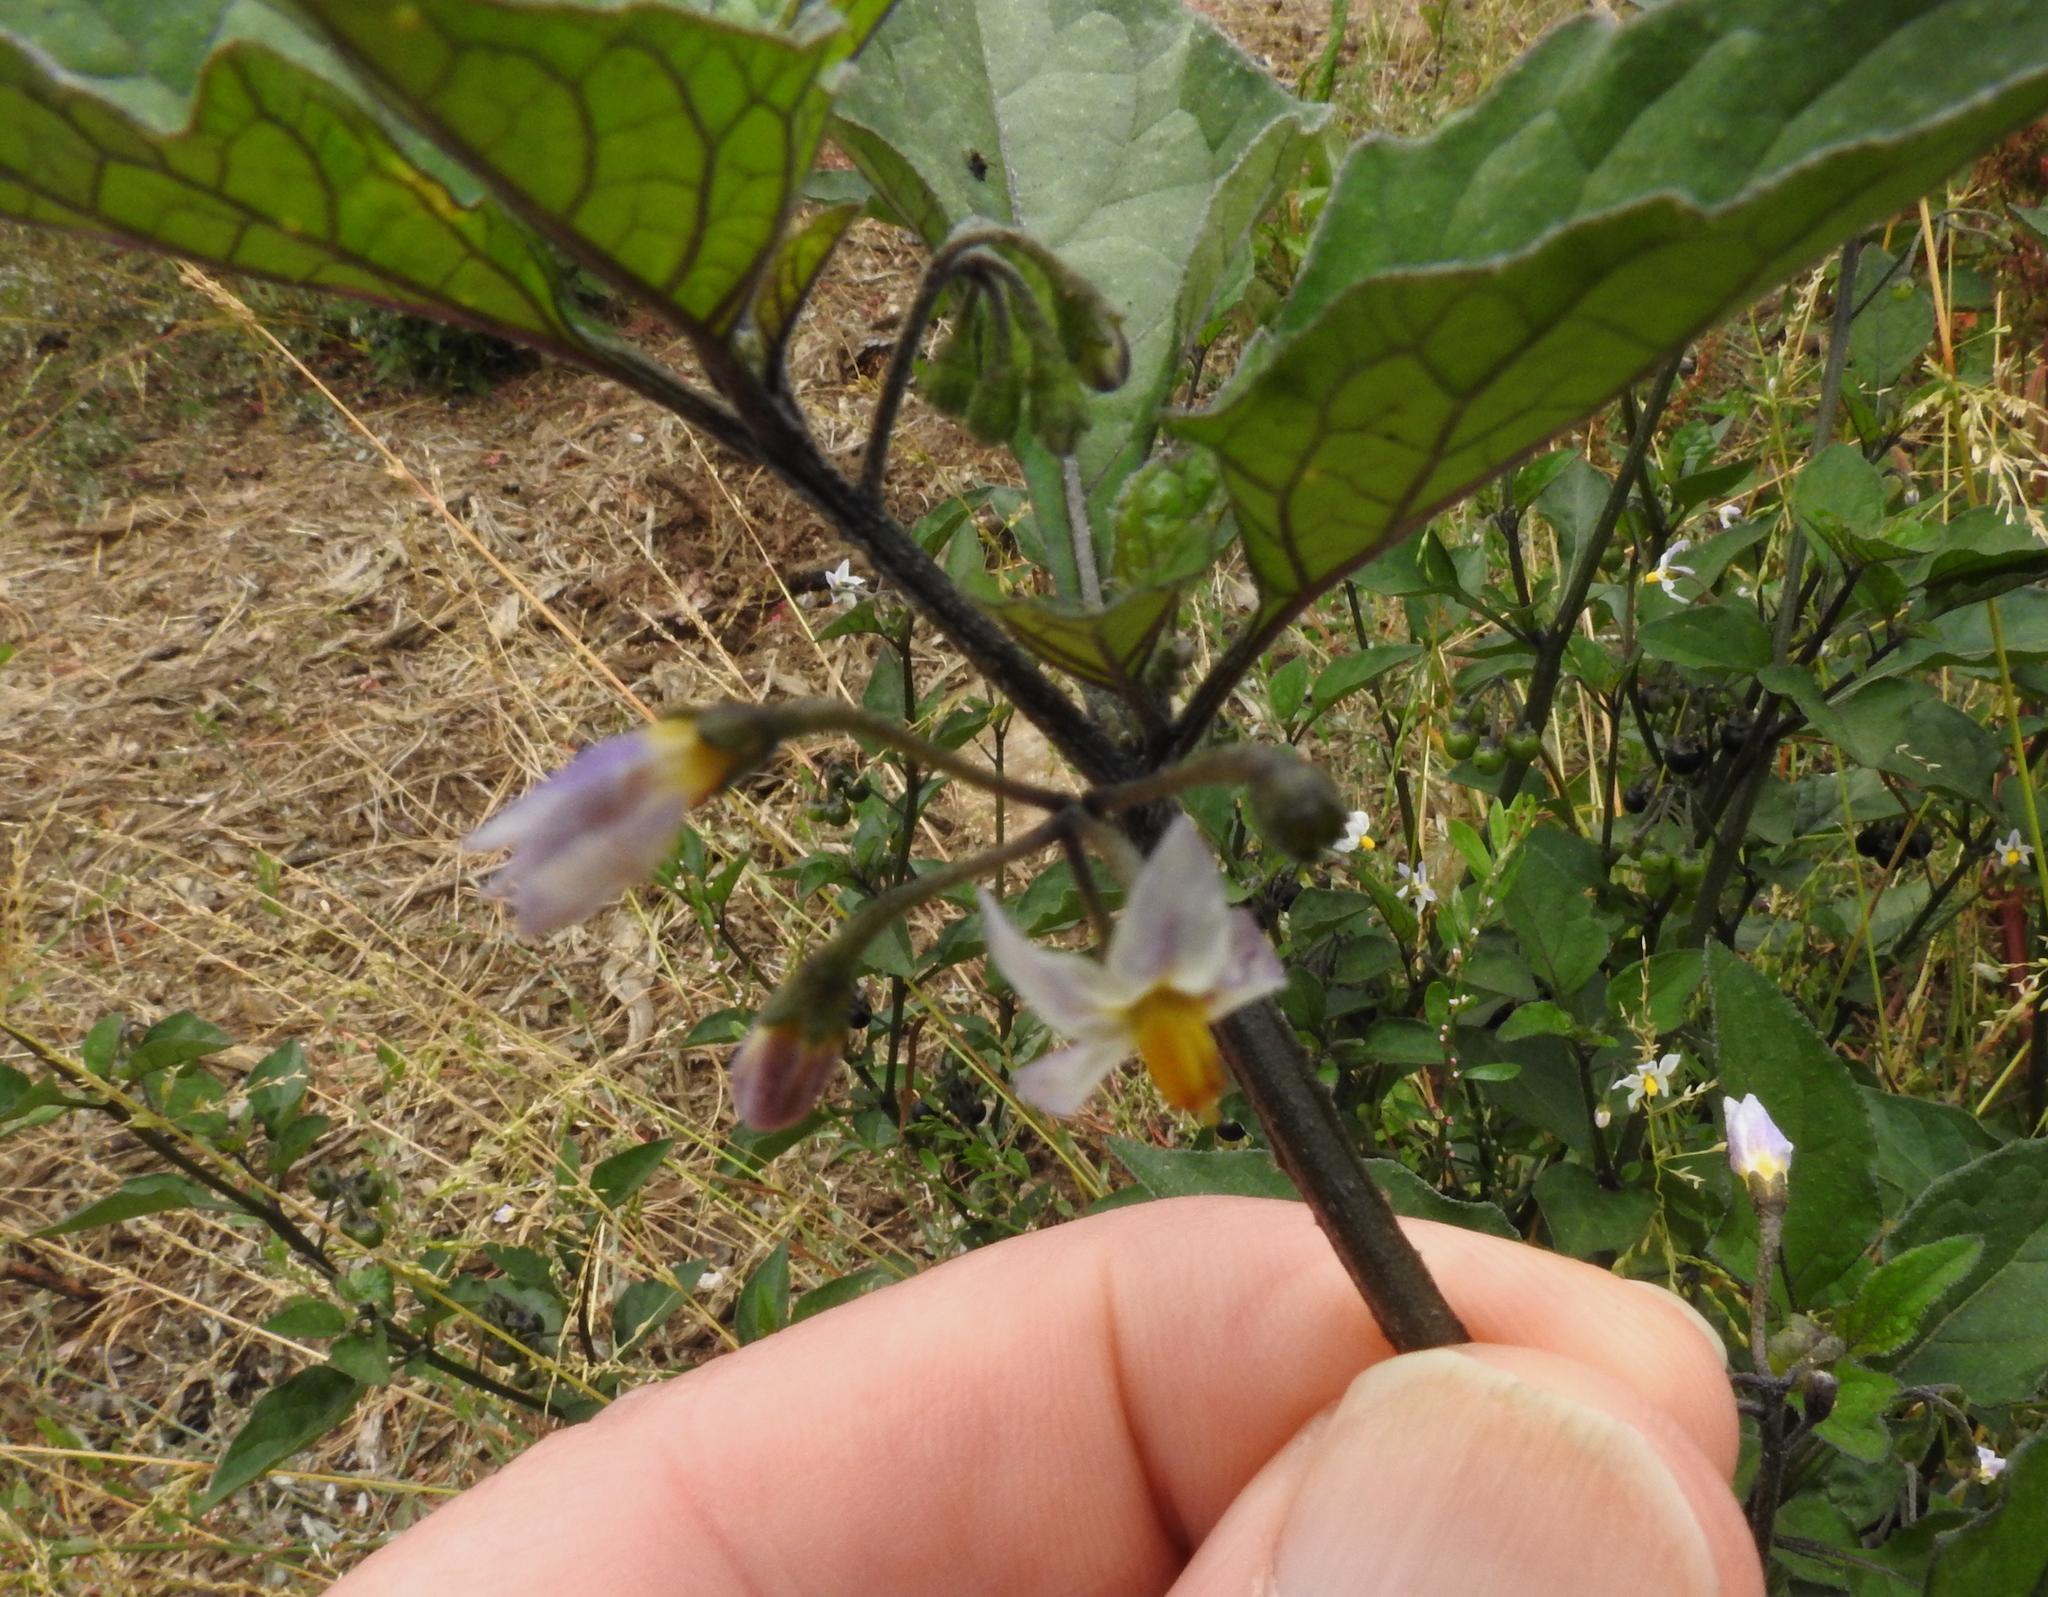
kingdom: Plantae
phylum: Tracheophyta
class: Magnoliopsida
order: Solanales
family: Solanaceae
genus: Solanum
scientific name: Solanum nigrum
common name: Black nightshade
